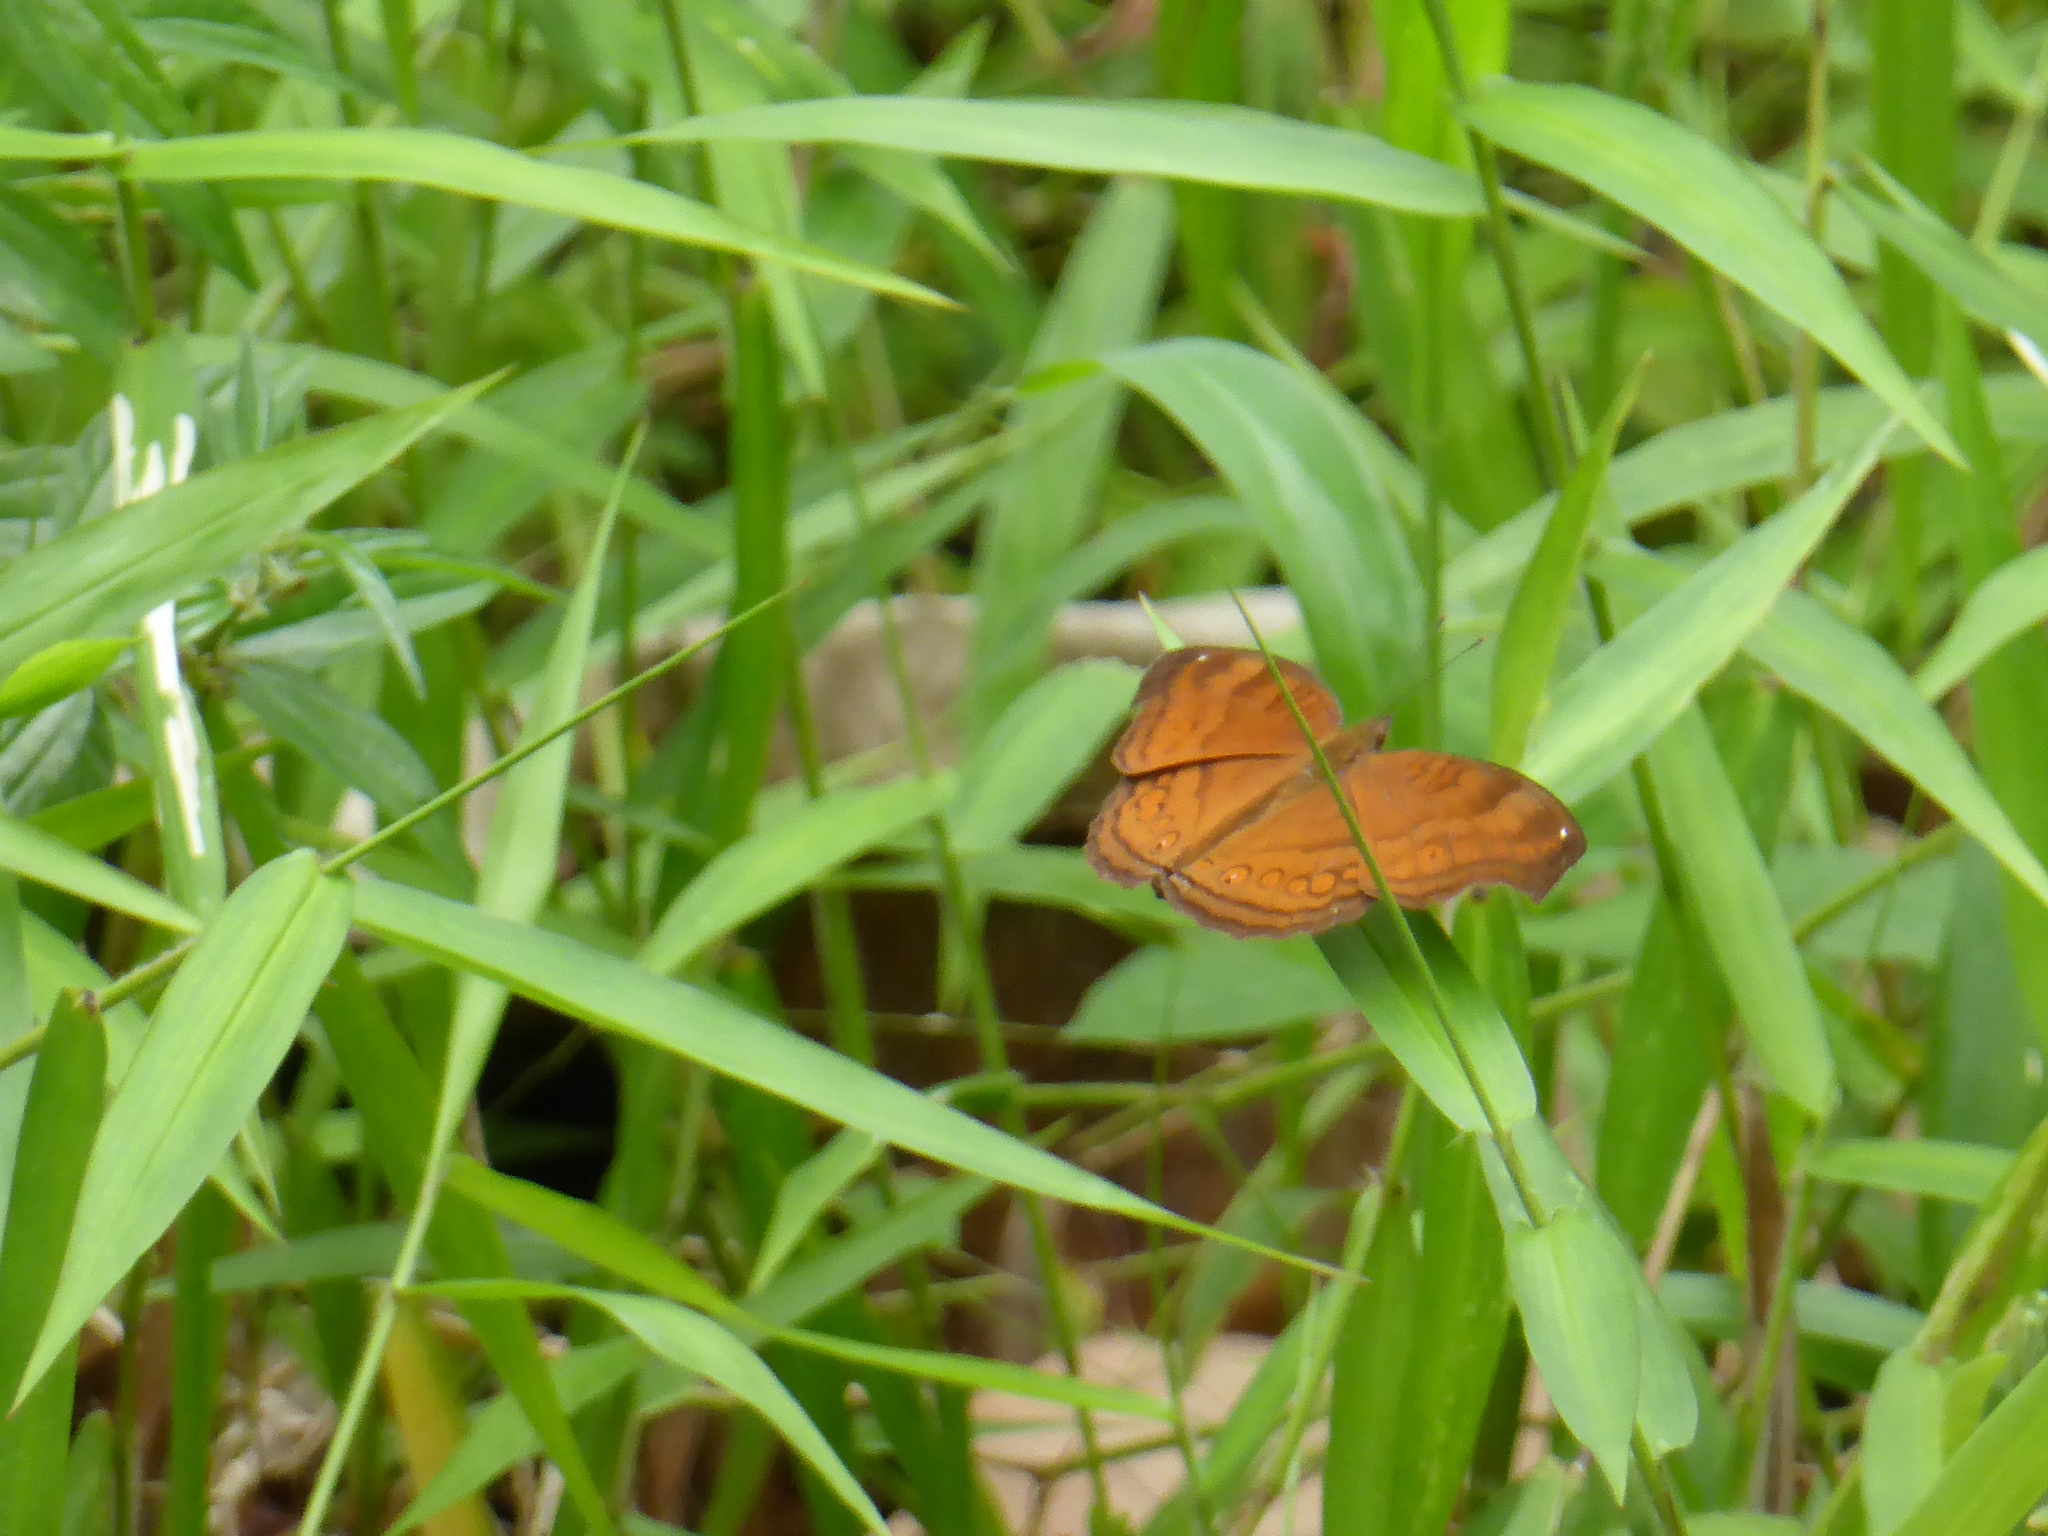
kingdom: Animalia
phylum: Arthropoda
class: Insecta
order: Lepidoptera
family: Nymphalidae
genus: Junonia
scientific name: Junonia hedonia
